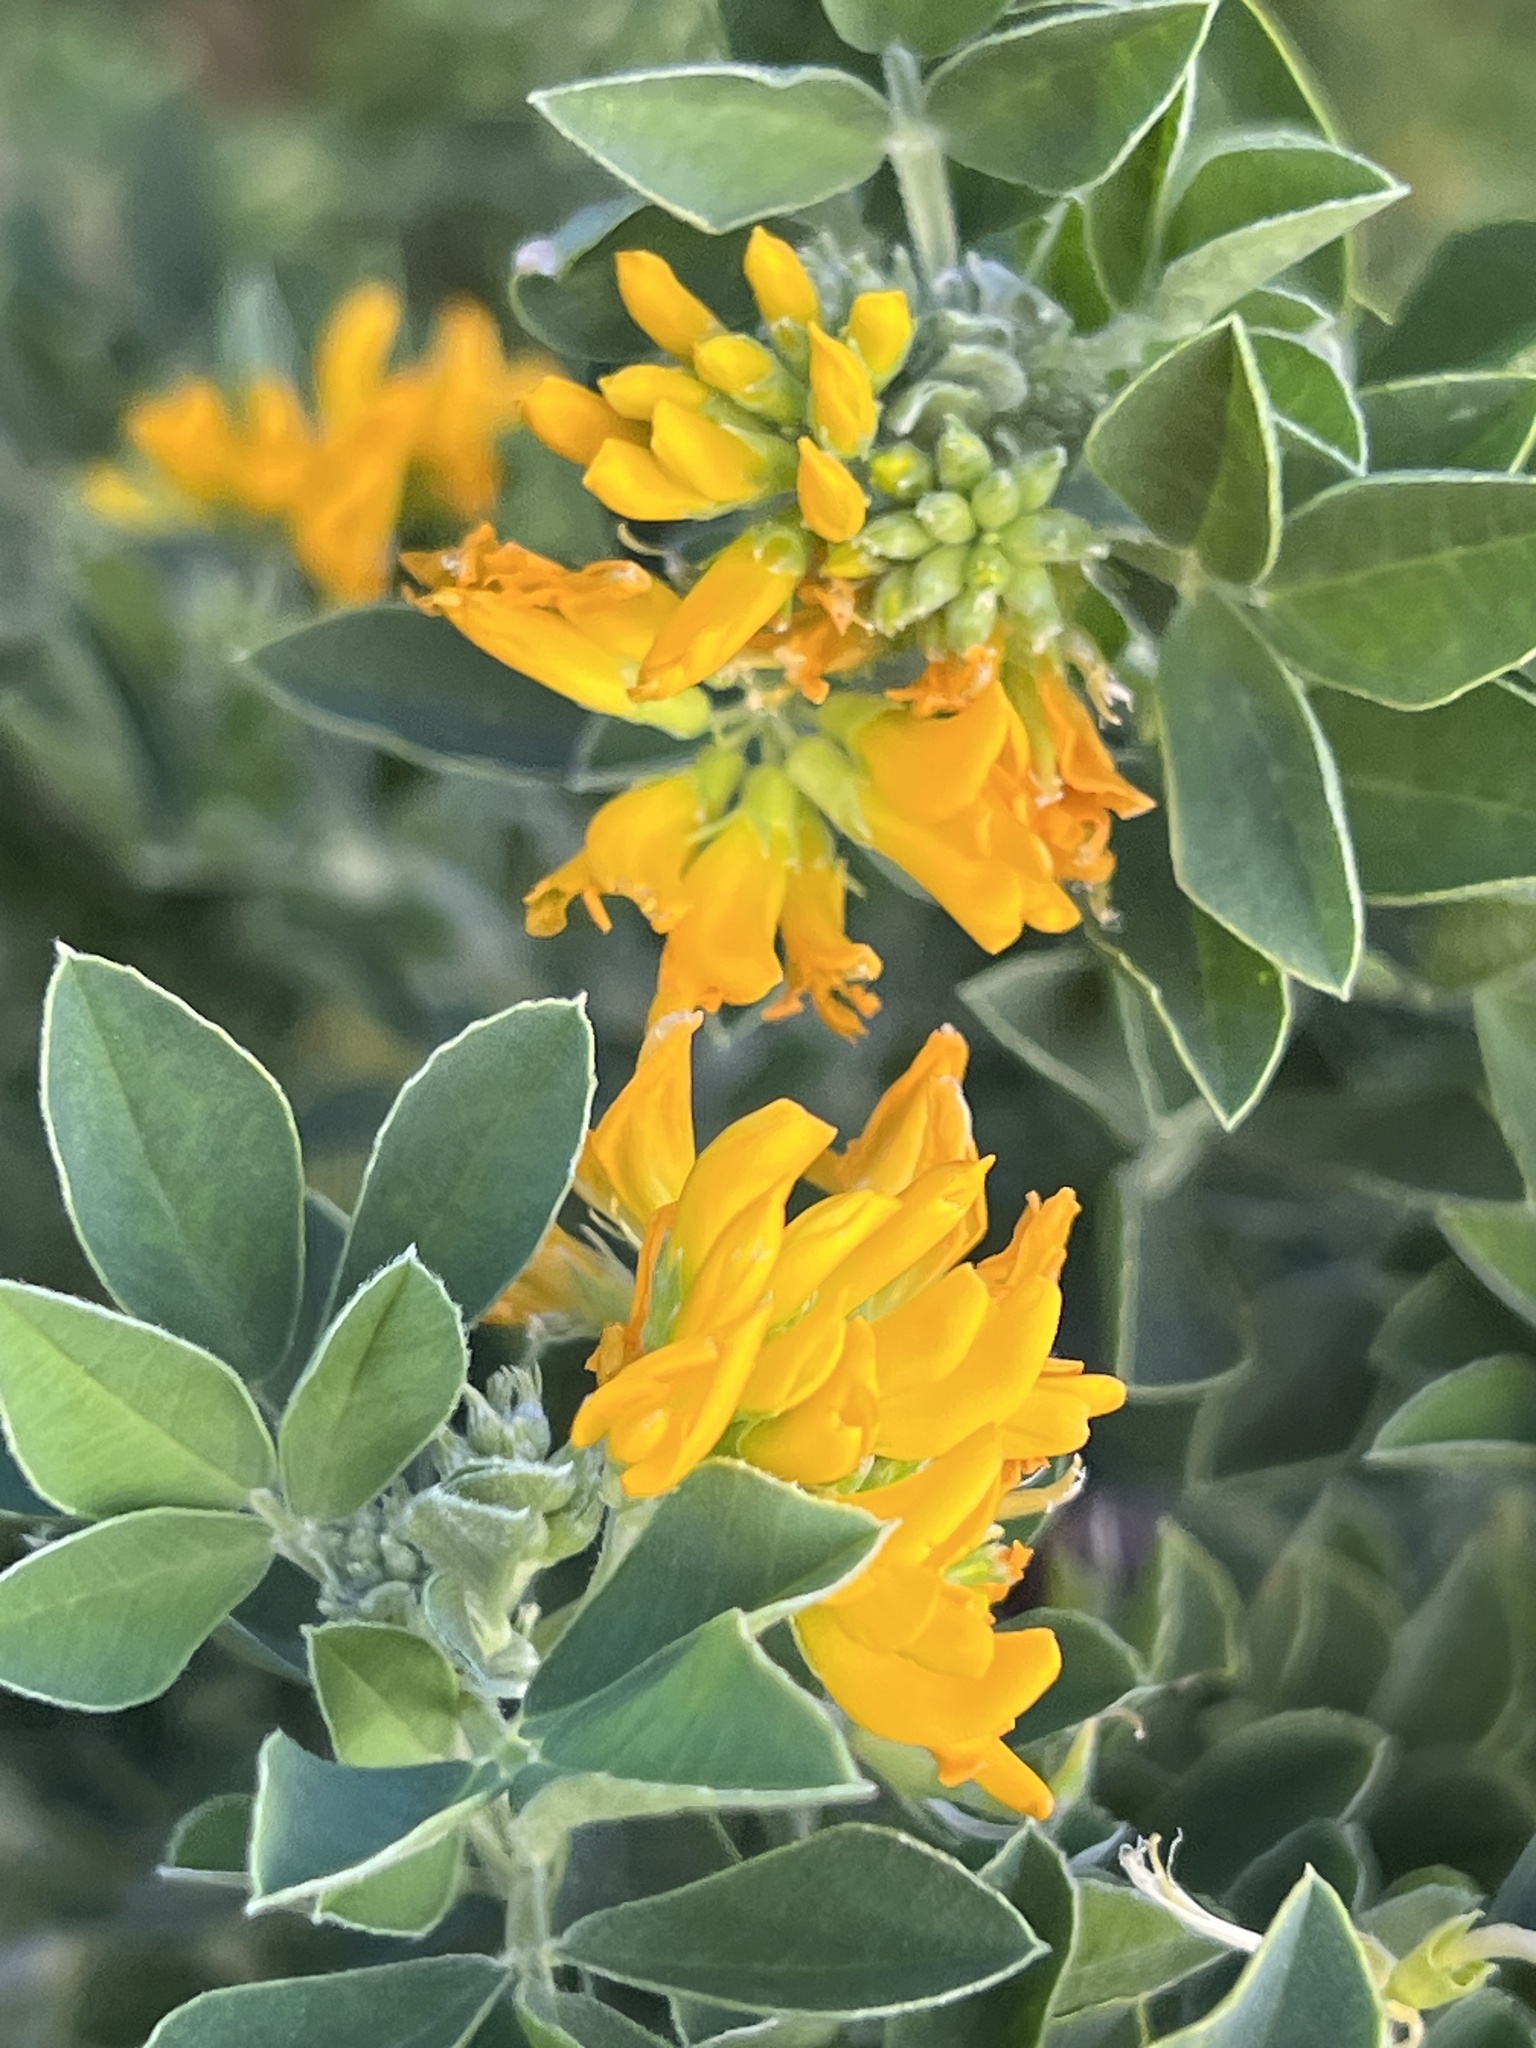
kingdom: Plantae
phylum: Tracheophyta
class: Magnoliopsida
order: Fabales
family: Fabaceae
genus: Medicago
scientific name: Medicago arborea
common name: Moon trefoil
